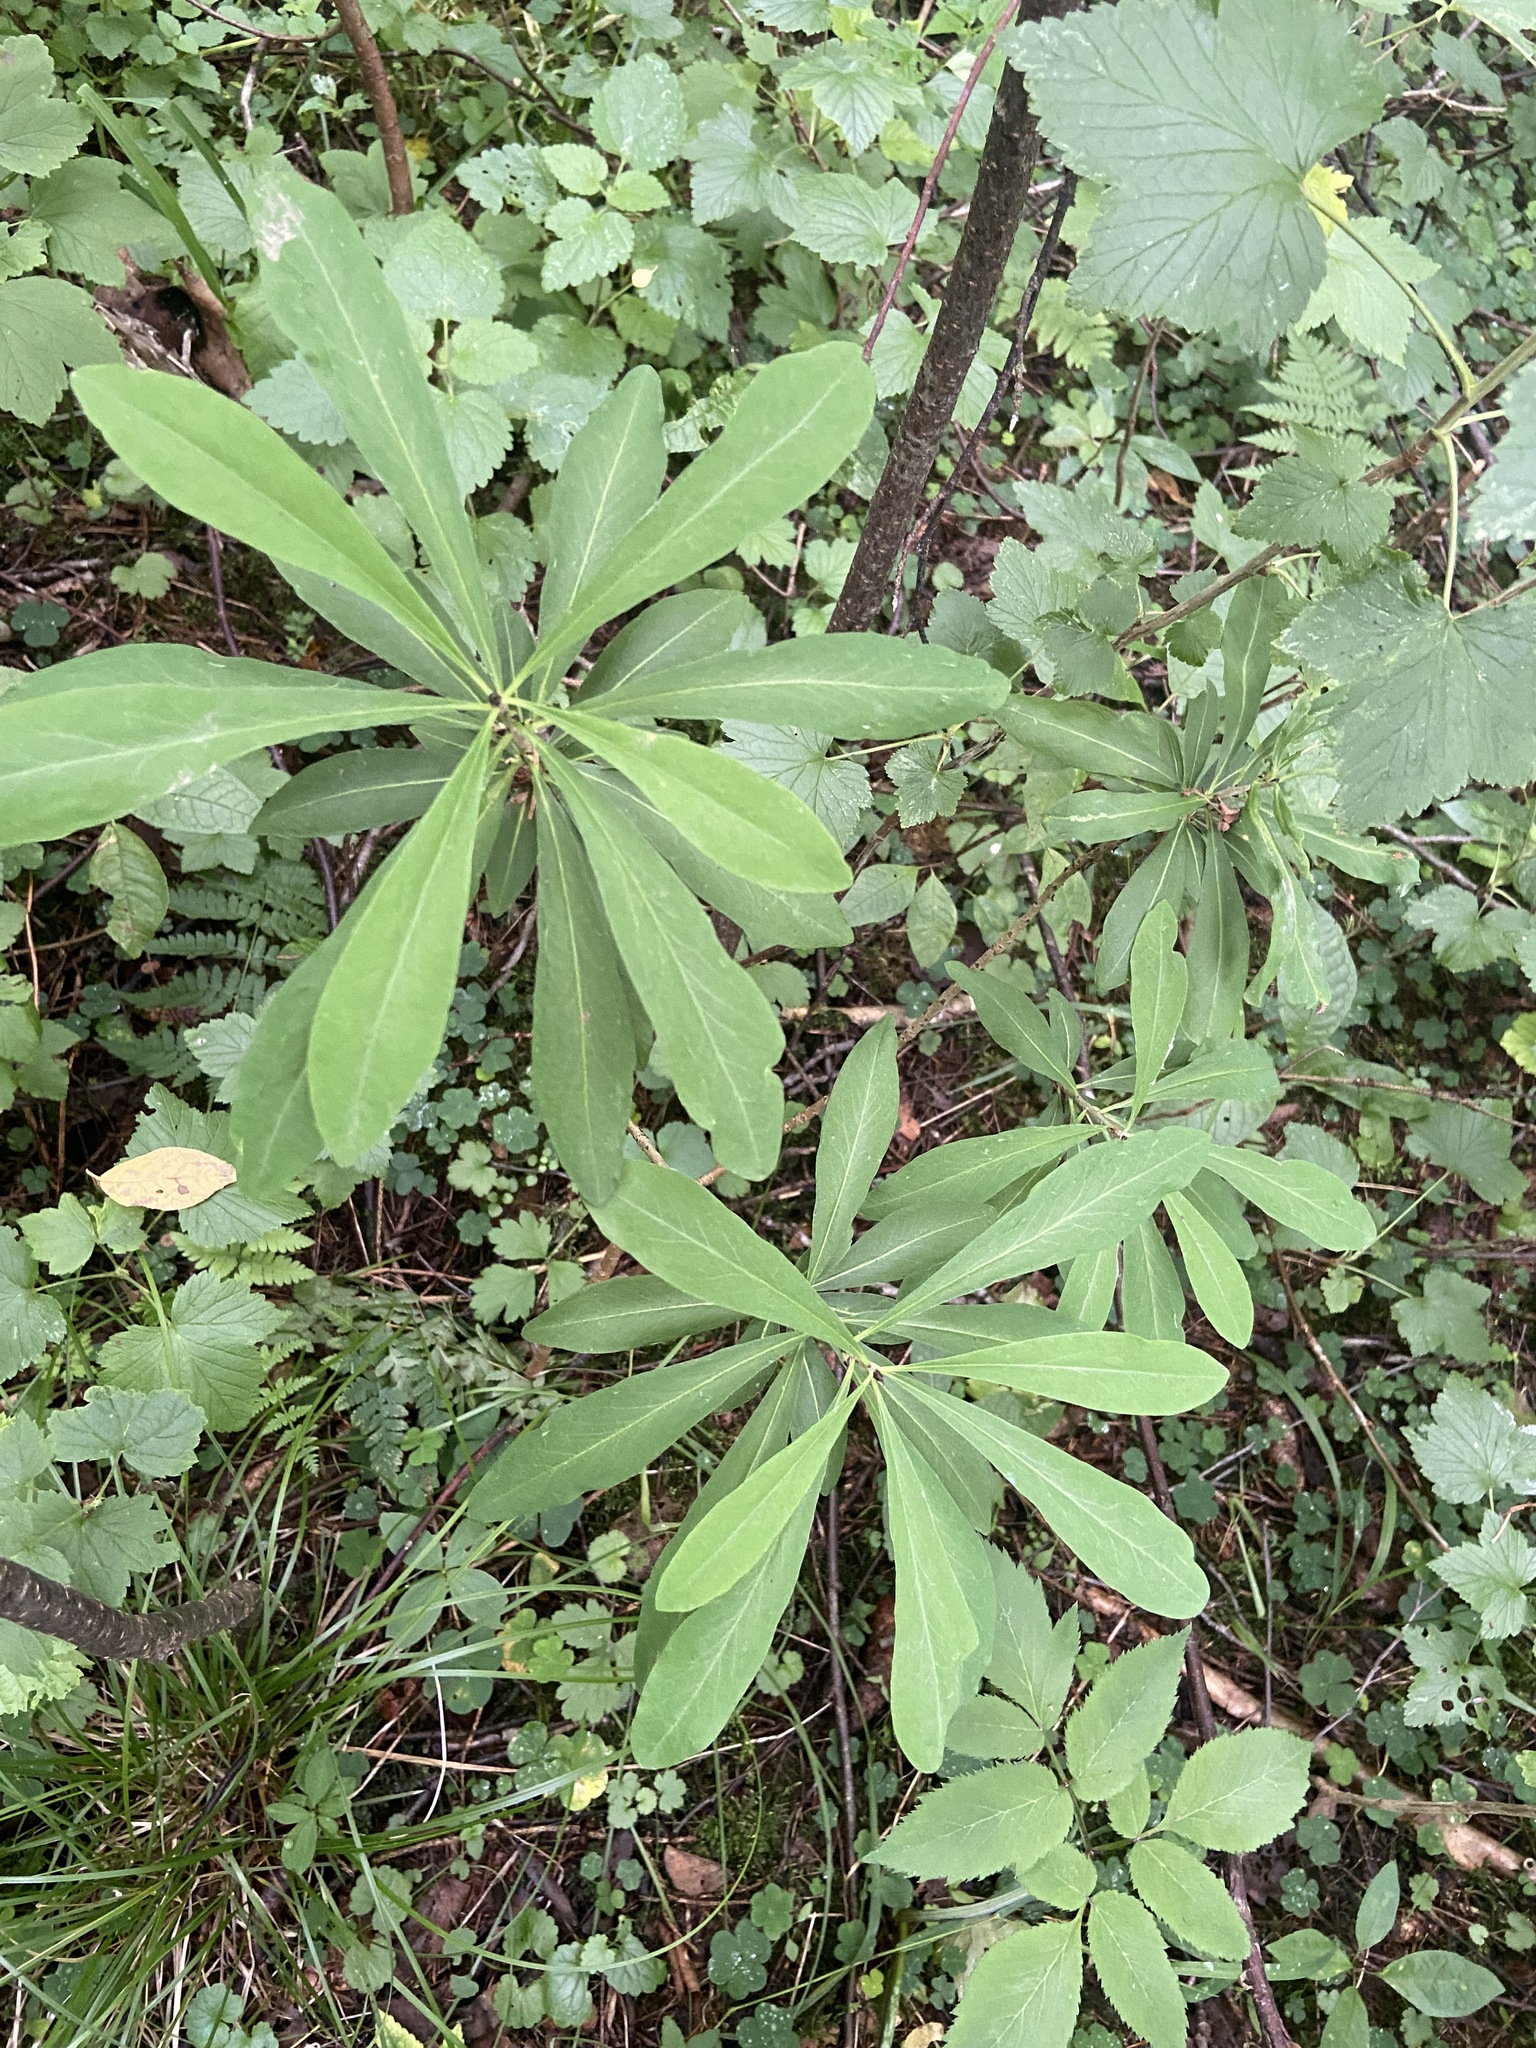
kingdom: Plantae
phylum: Tracheophyta
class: Magnoliopsida
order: Malvales
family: Thymelaeaceae
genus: Daphne
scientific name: Daphne mezereum
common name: Mezereon
